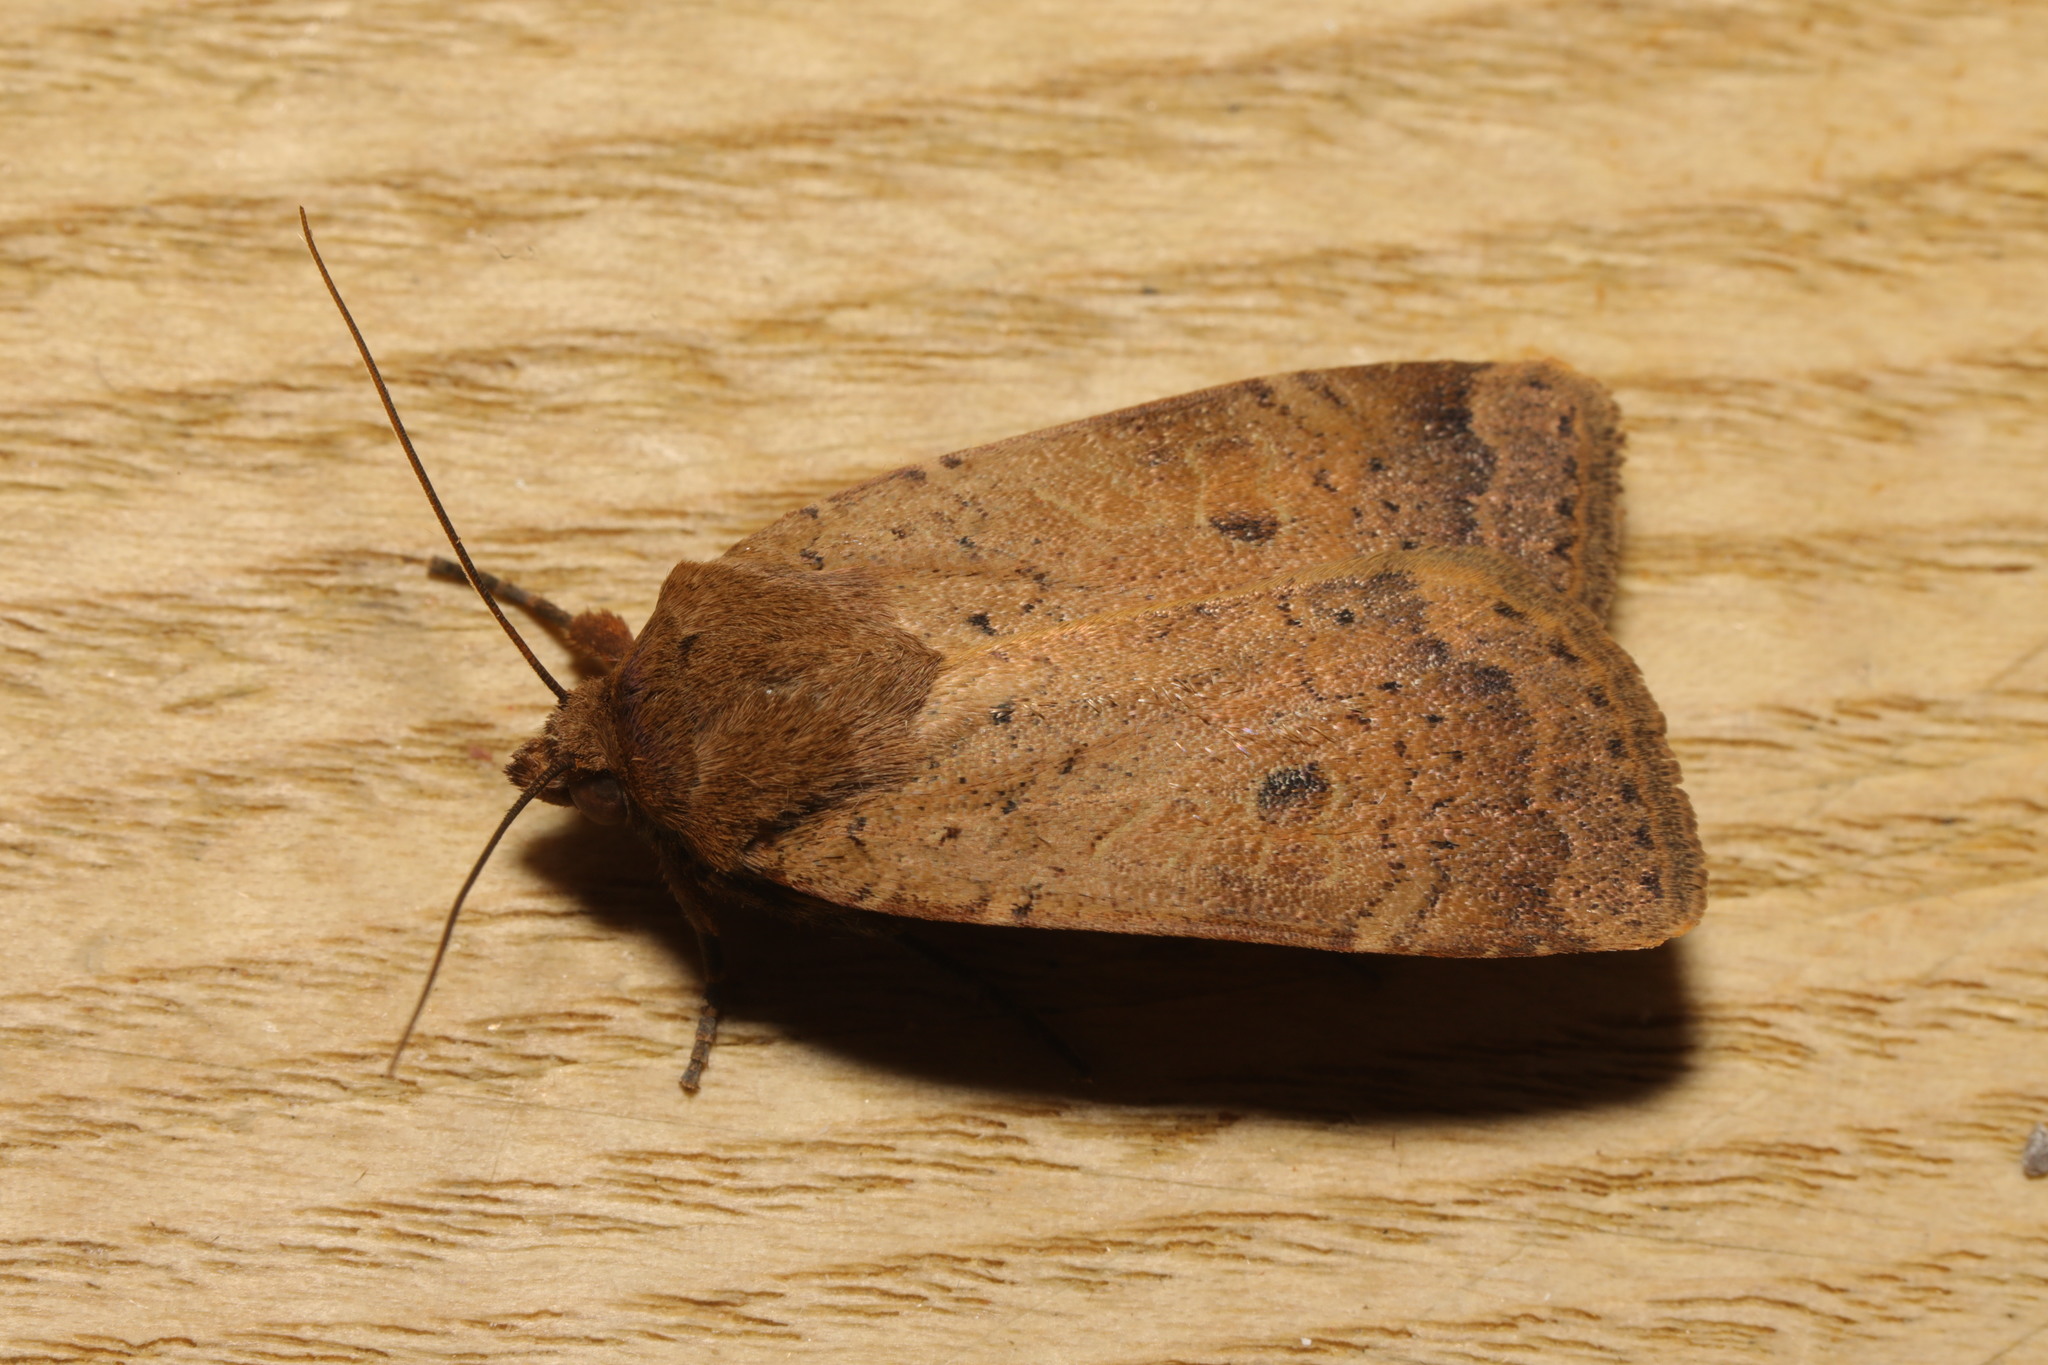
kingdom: Animalia
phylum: Arthropoda
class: Insecta
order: Lepidoptera
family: Noctuidae
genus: Noctua
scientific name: Noctua comes
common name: Lesser yellow underwing
